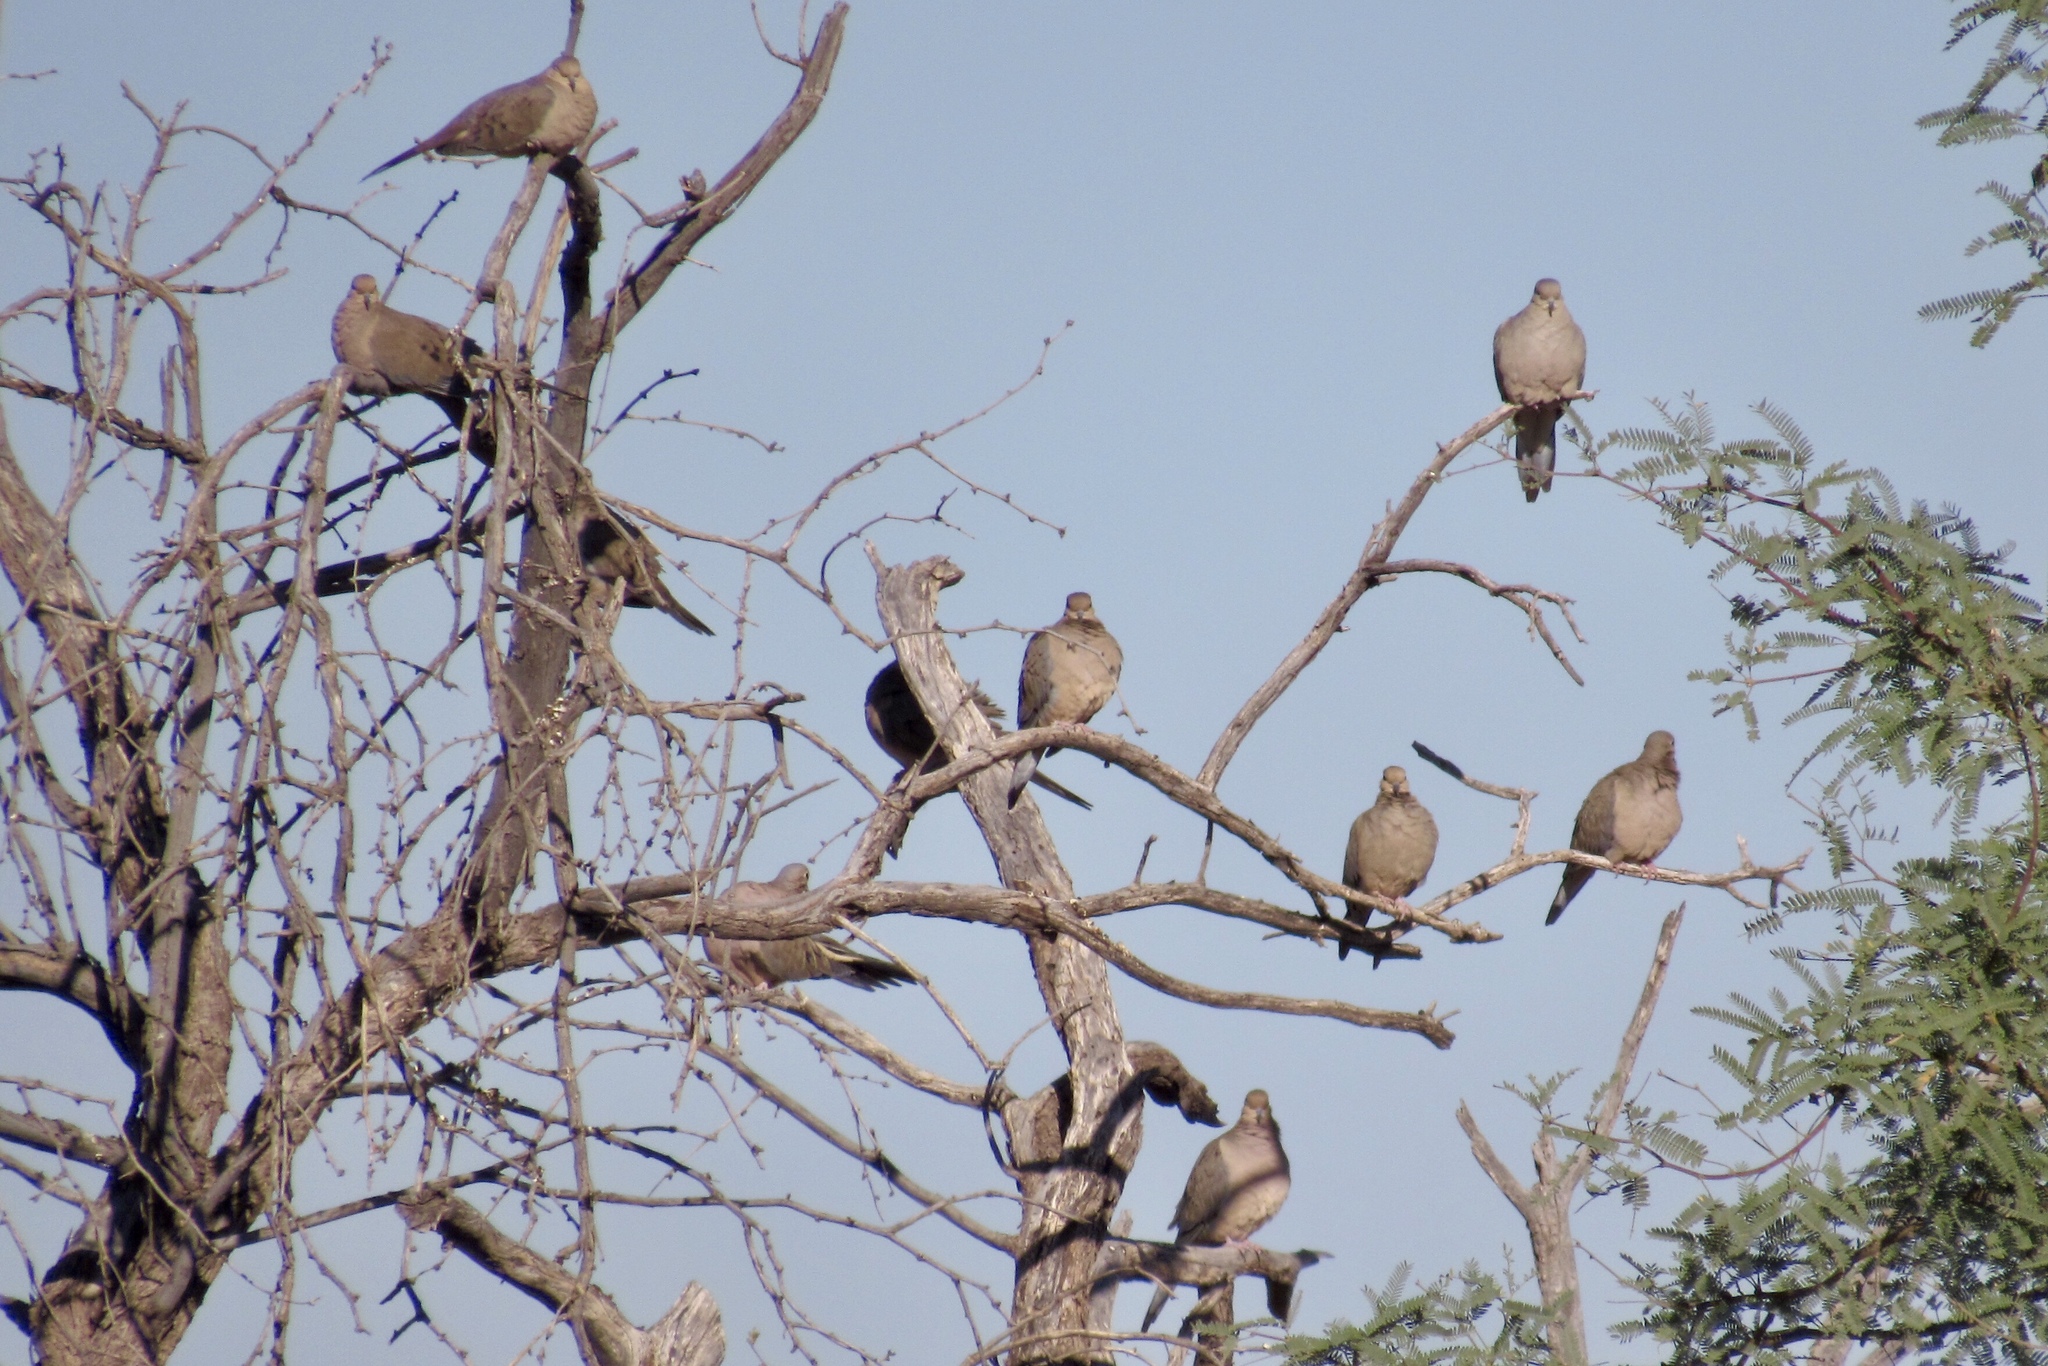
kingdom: Animalia
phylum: Chordata
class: Aves
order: Columbiformes
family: Columbidae
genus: Zenaida
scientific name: Zenaida macroura
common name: Mourning dove
